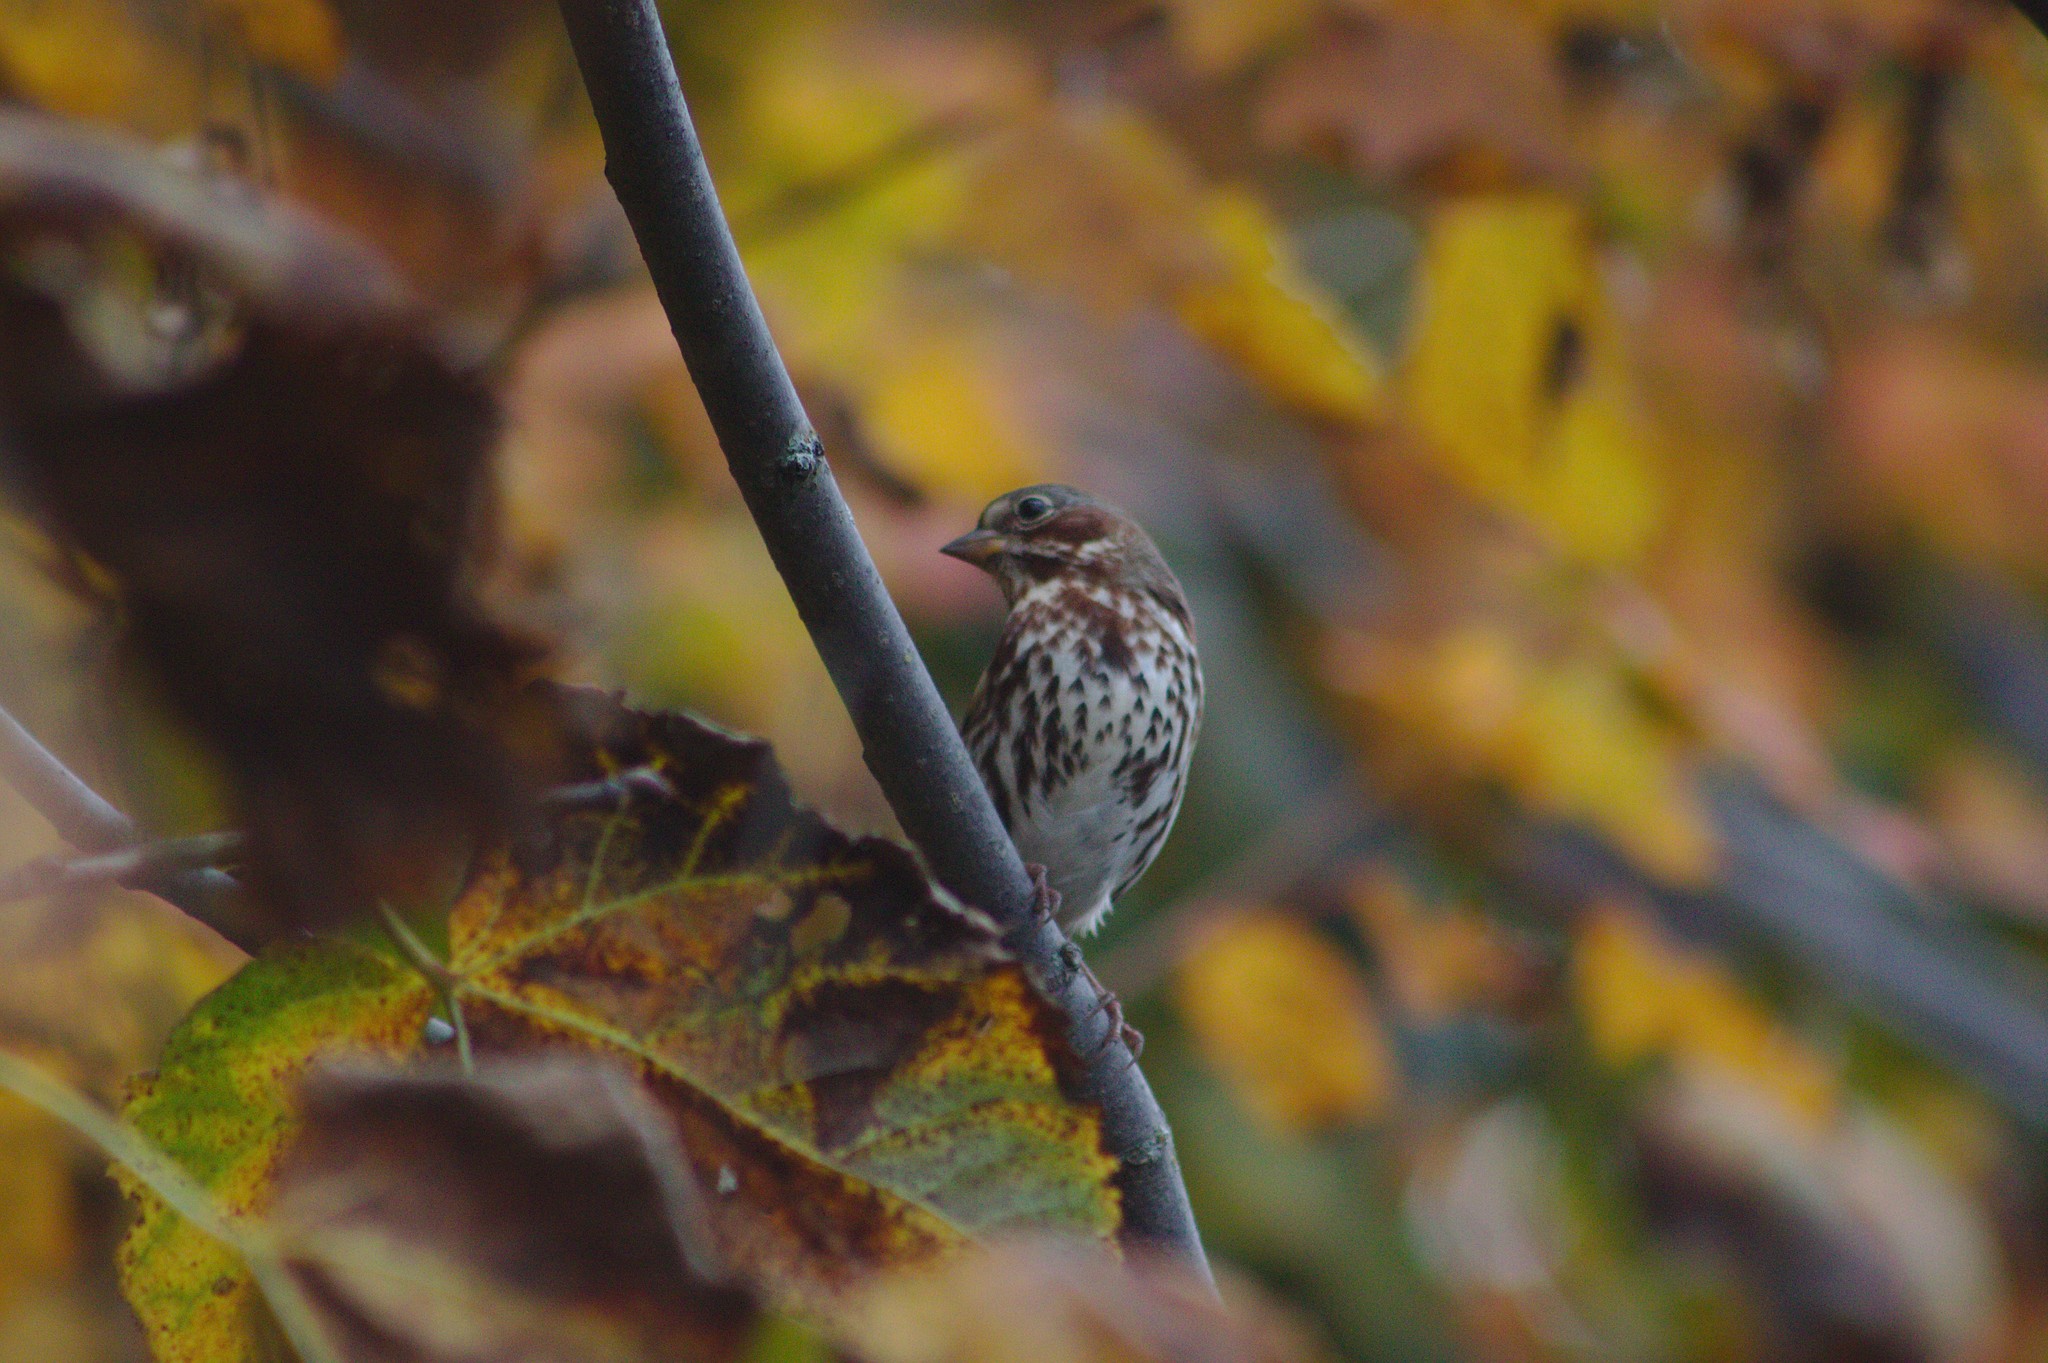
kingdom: Animalia
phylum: Chordata
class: Aves
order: Passeriformes
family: Passerellidae
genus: Passerella
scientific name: Passerella iliaca
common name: Fox sparrow
